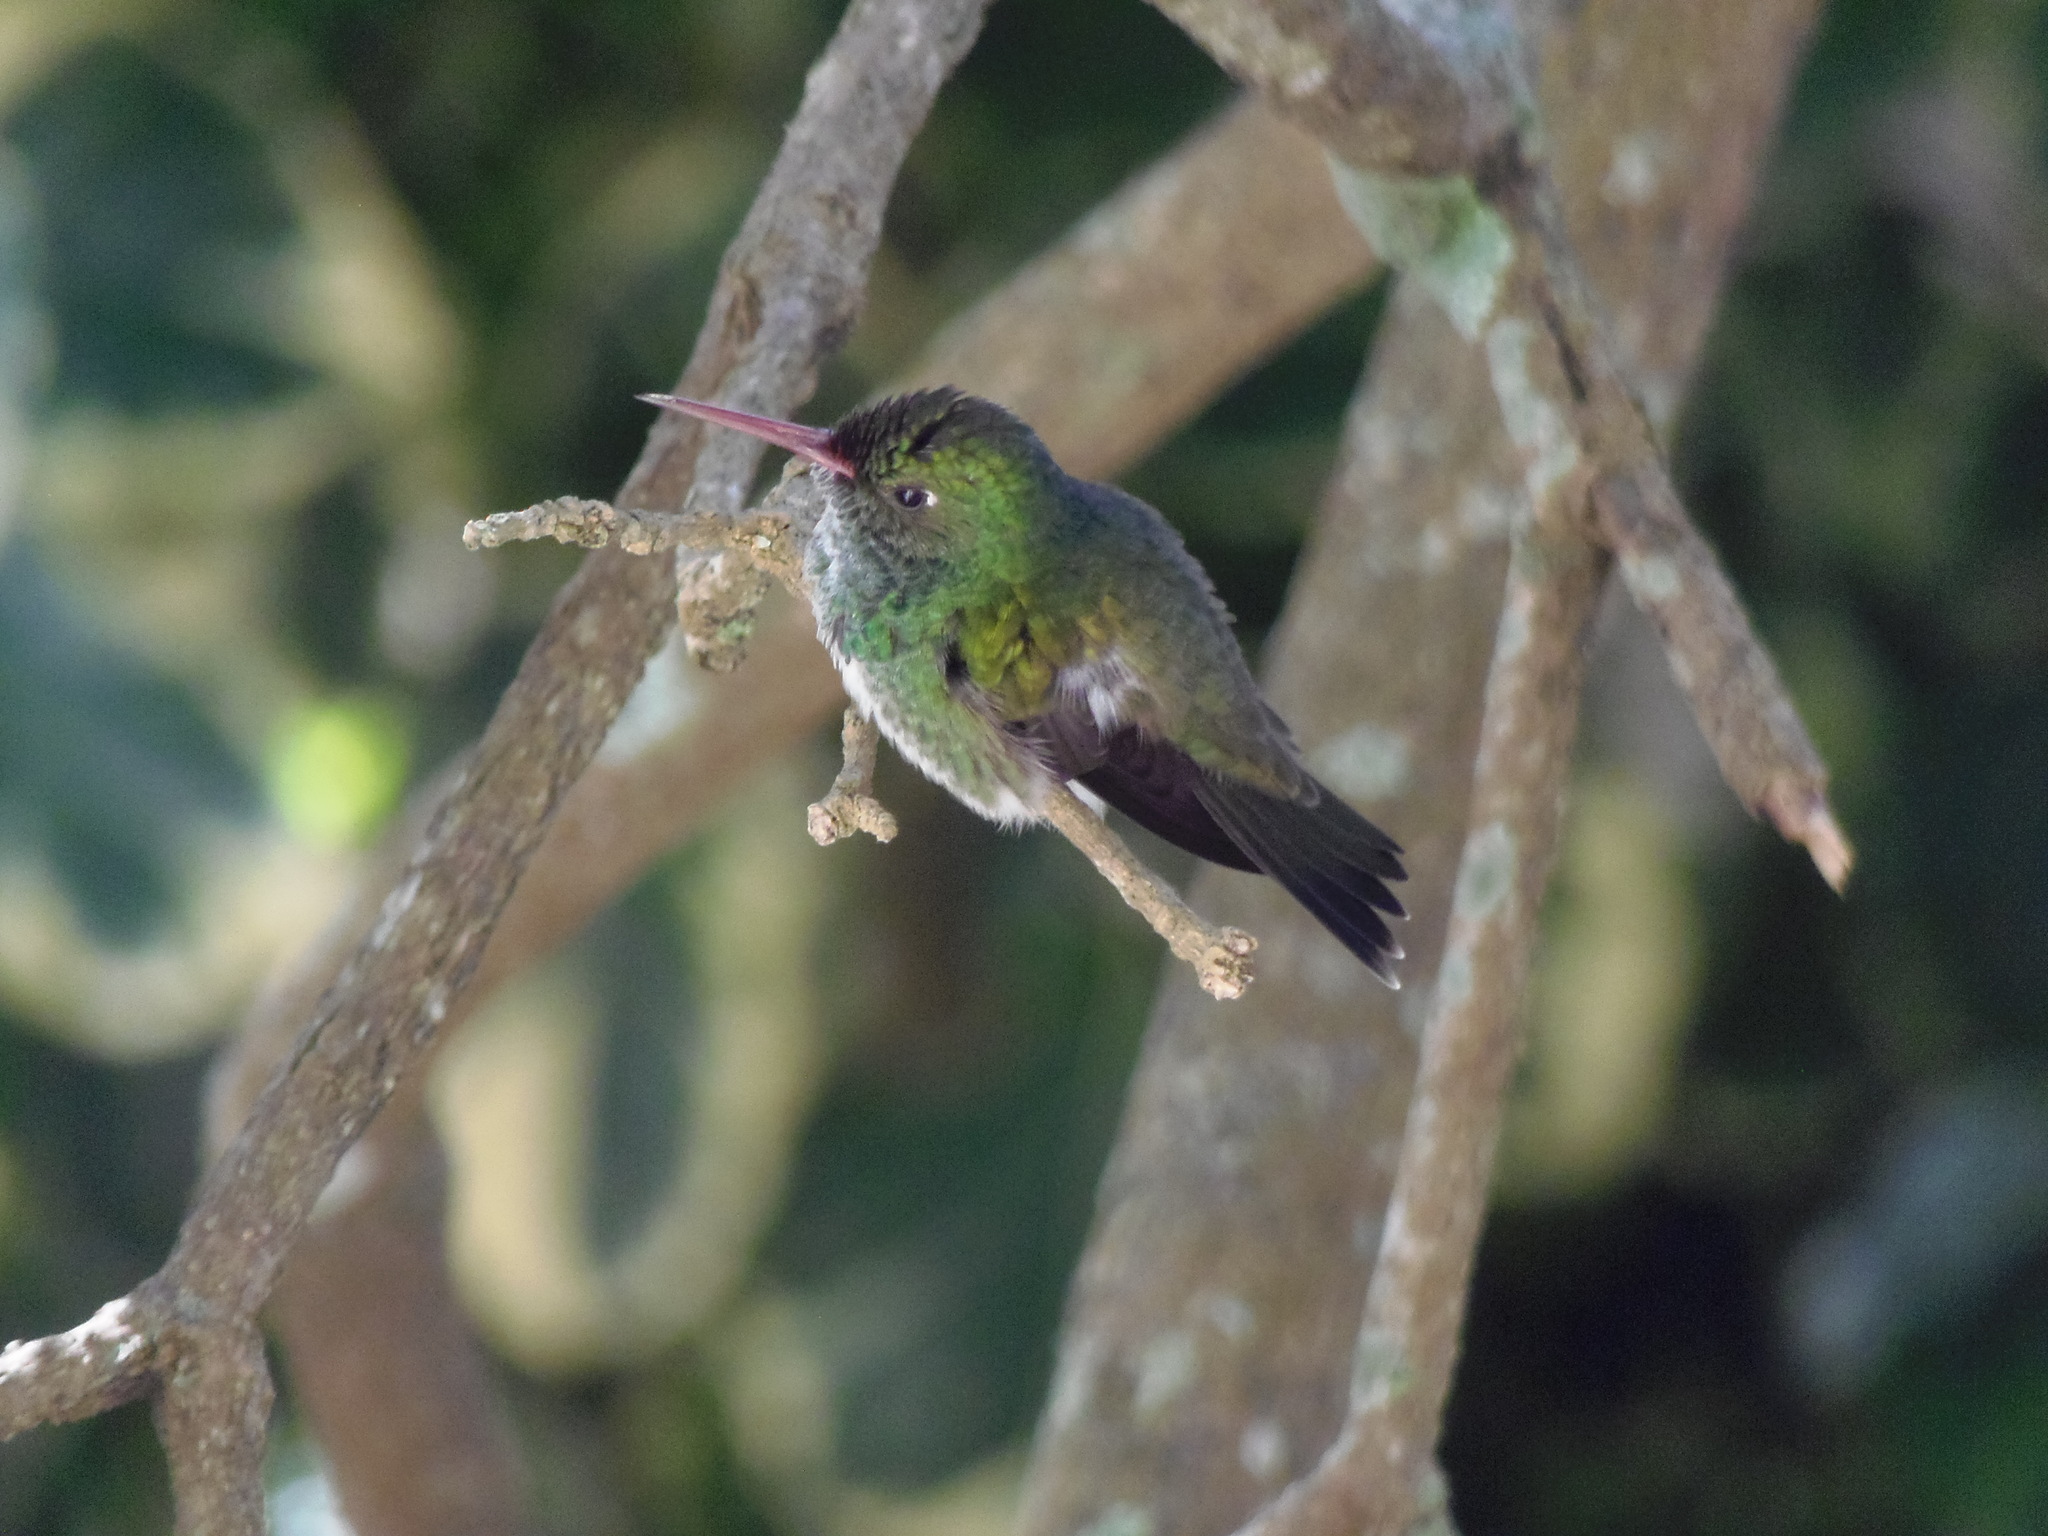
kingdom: Animalia
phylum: Chordata
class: Aves
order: Apodiformes
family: Trochilidae
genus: Chionomesa
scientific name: Chionomesa fimbriata
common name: Glittering-throated emerald
